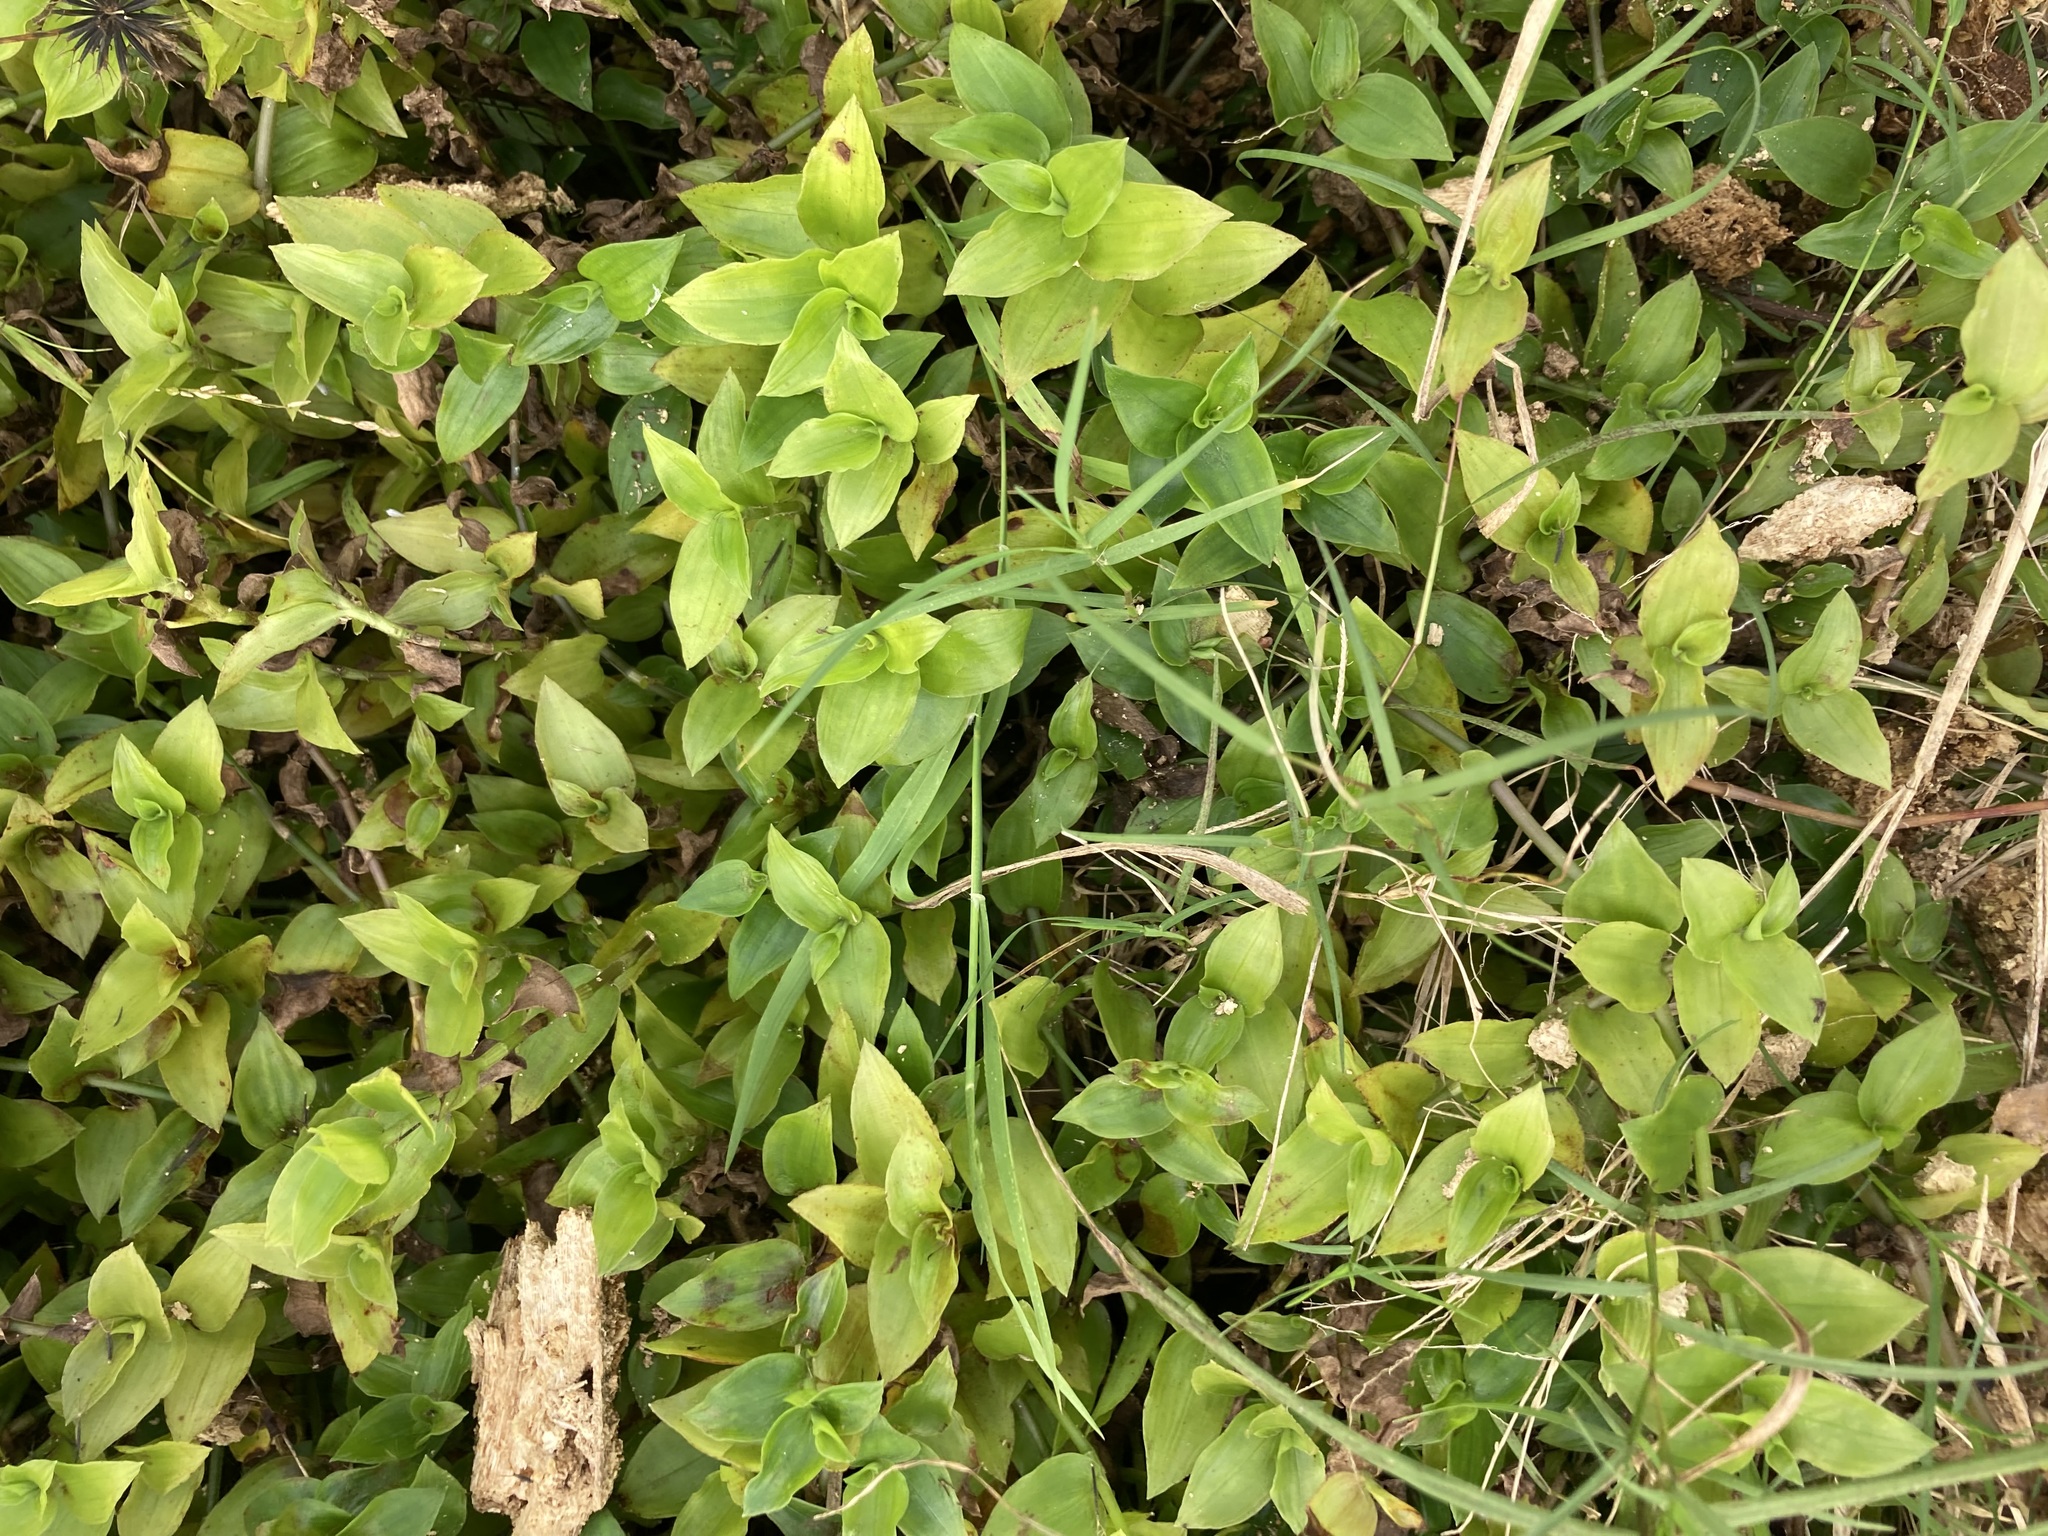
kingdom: Plantae
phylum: Tracheophyta
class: Liliopsida
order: Commelinales
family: Commelinaceae
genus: Tradescantia
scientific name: Tradescantia fluminensis
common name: Wandering-jew
